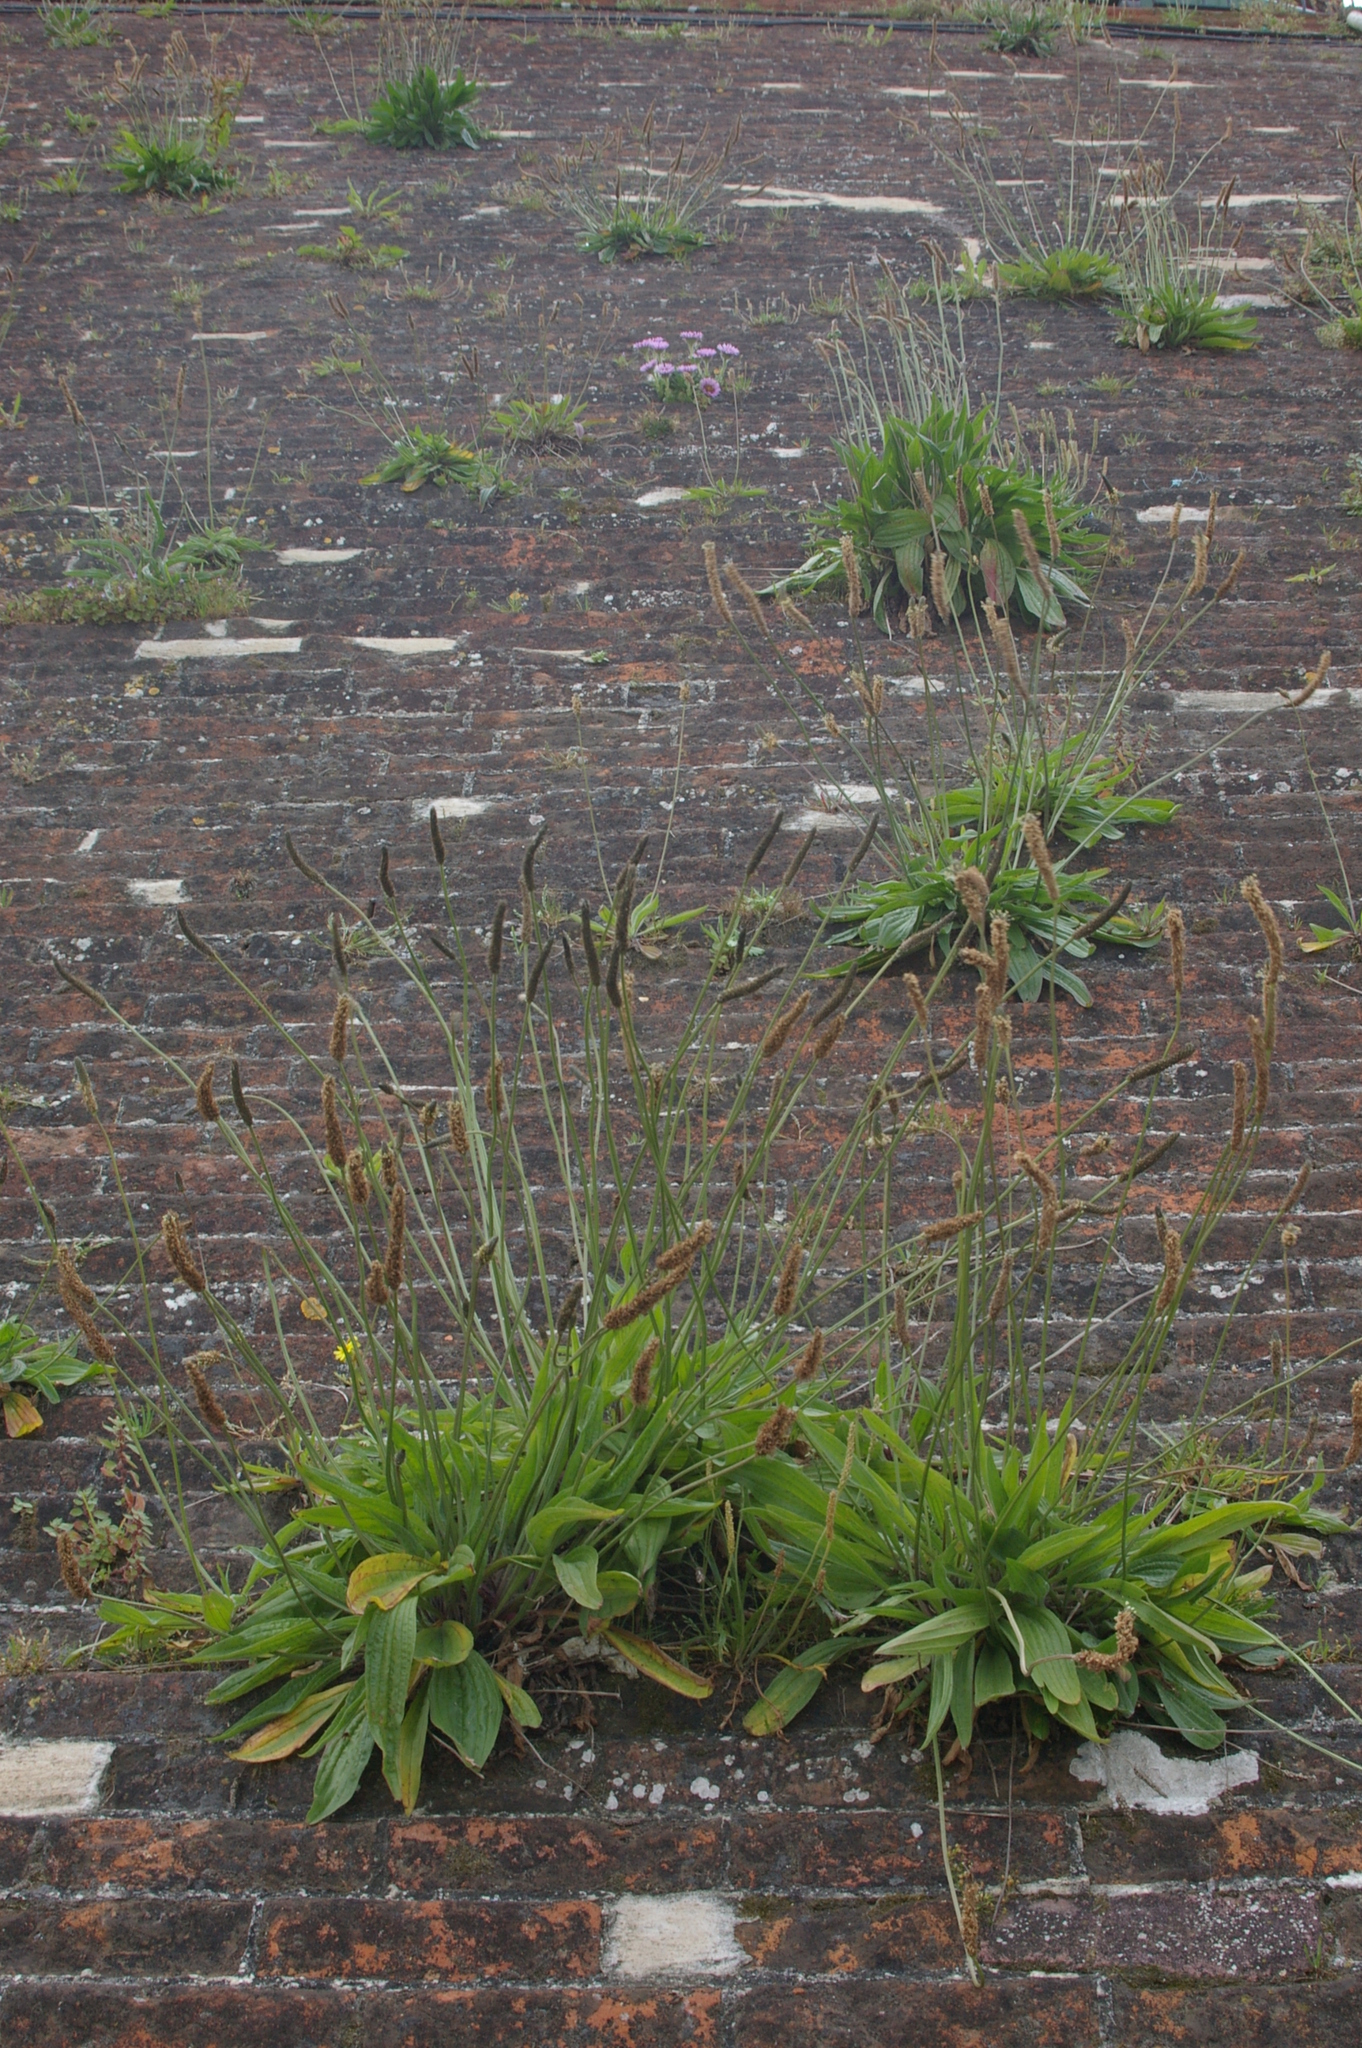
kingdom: Plantae
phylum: Tracheophyta
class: Magnoliopsida
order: Lamiales
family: Plantaginaceae
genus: Plantago
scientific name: Plantago lanceolata
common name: Ribwort plantain
